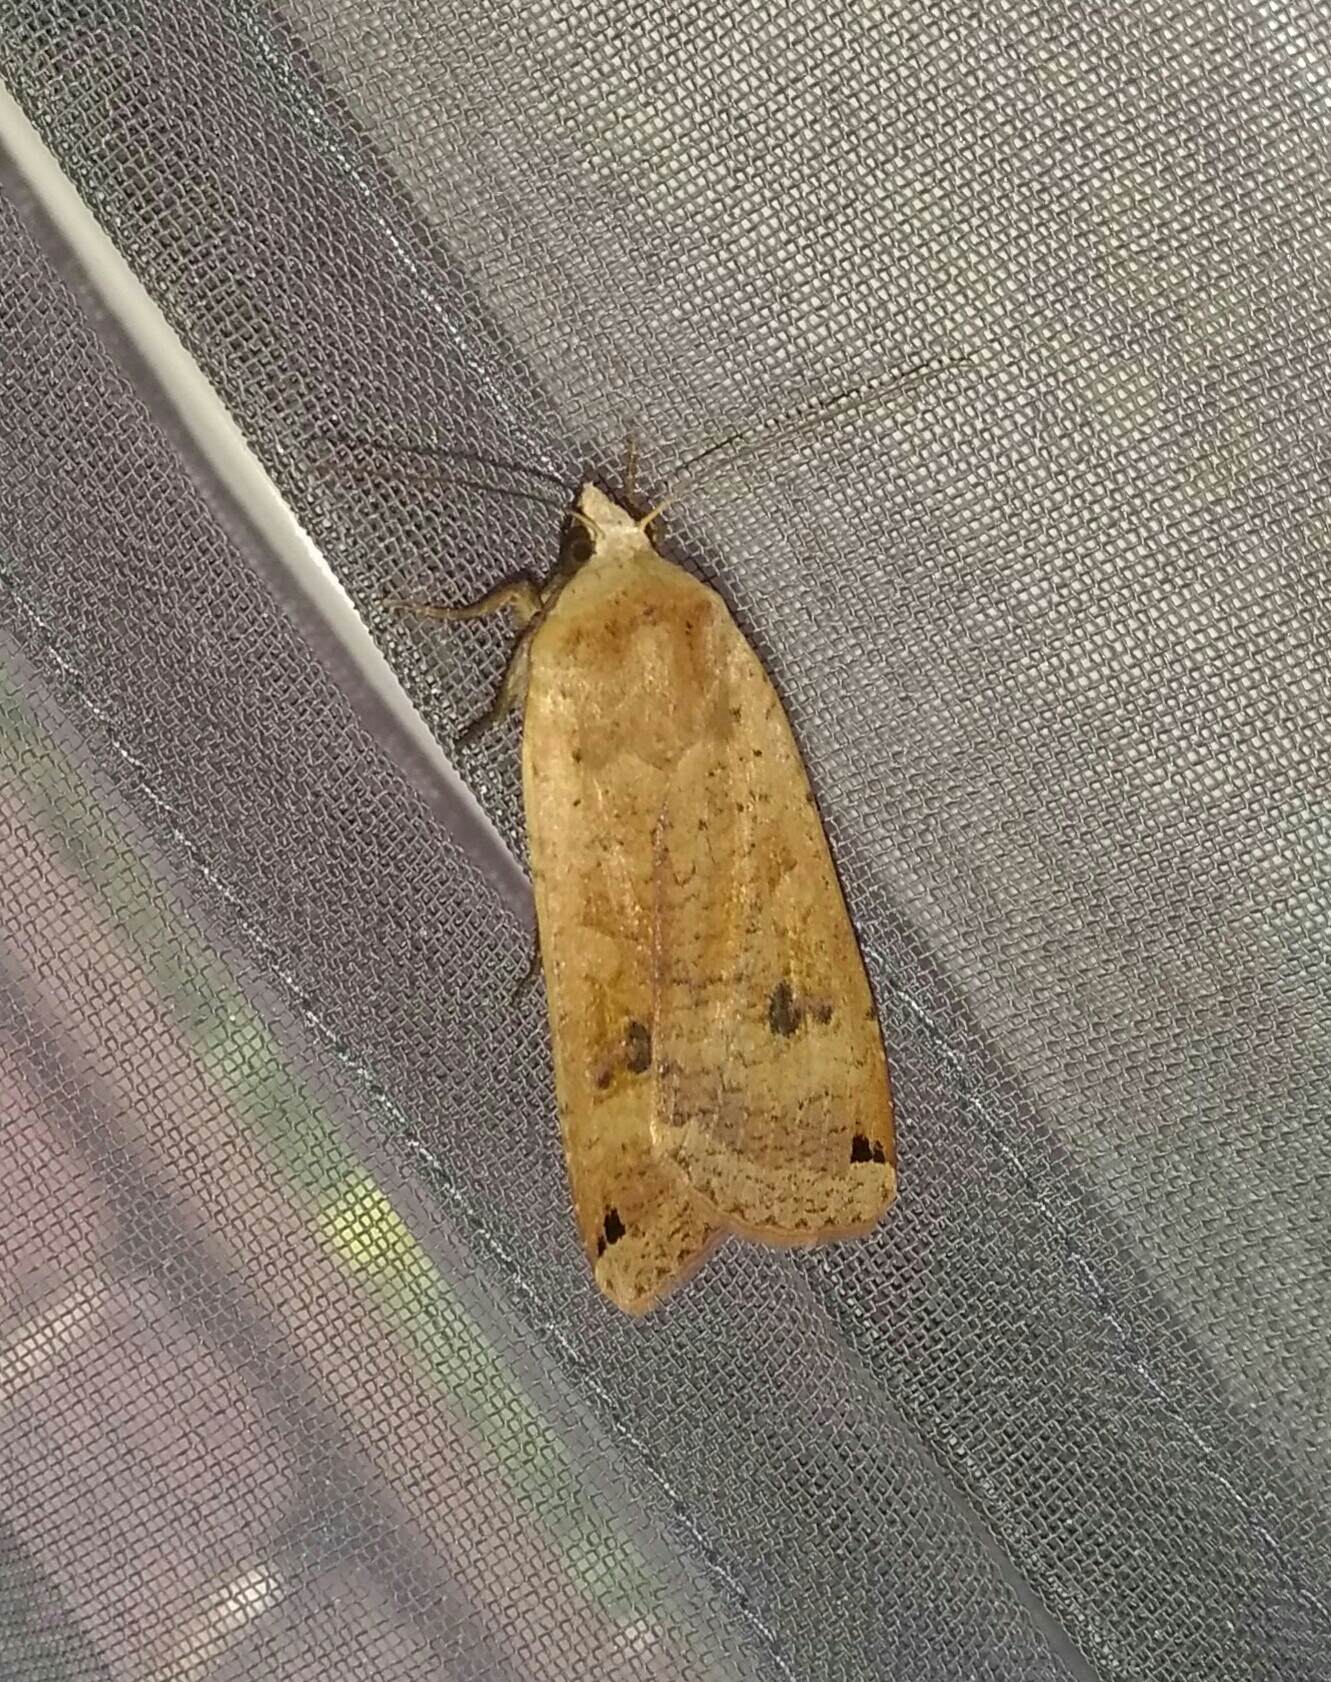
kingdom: Animalia
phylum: Arthropoda
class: Insecta
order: Lepidoptera
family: Noctuidae
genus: Noctua
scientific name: Noctua pronuba
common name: Large yellow underwing
